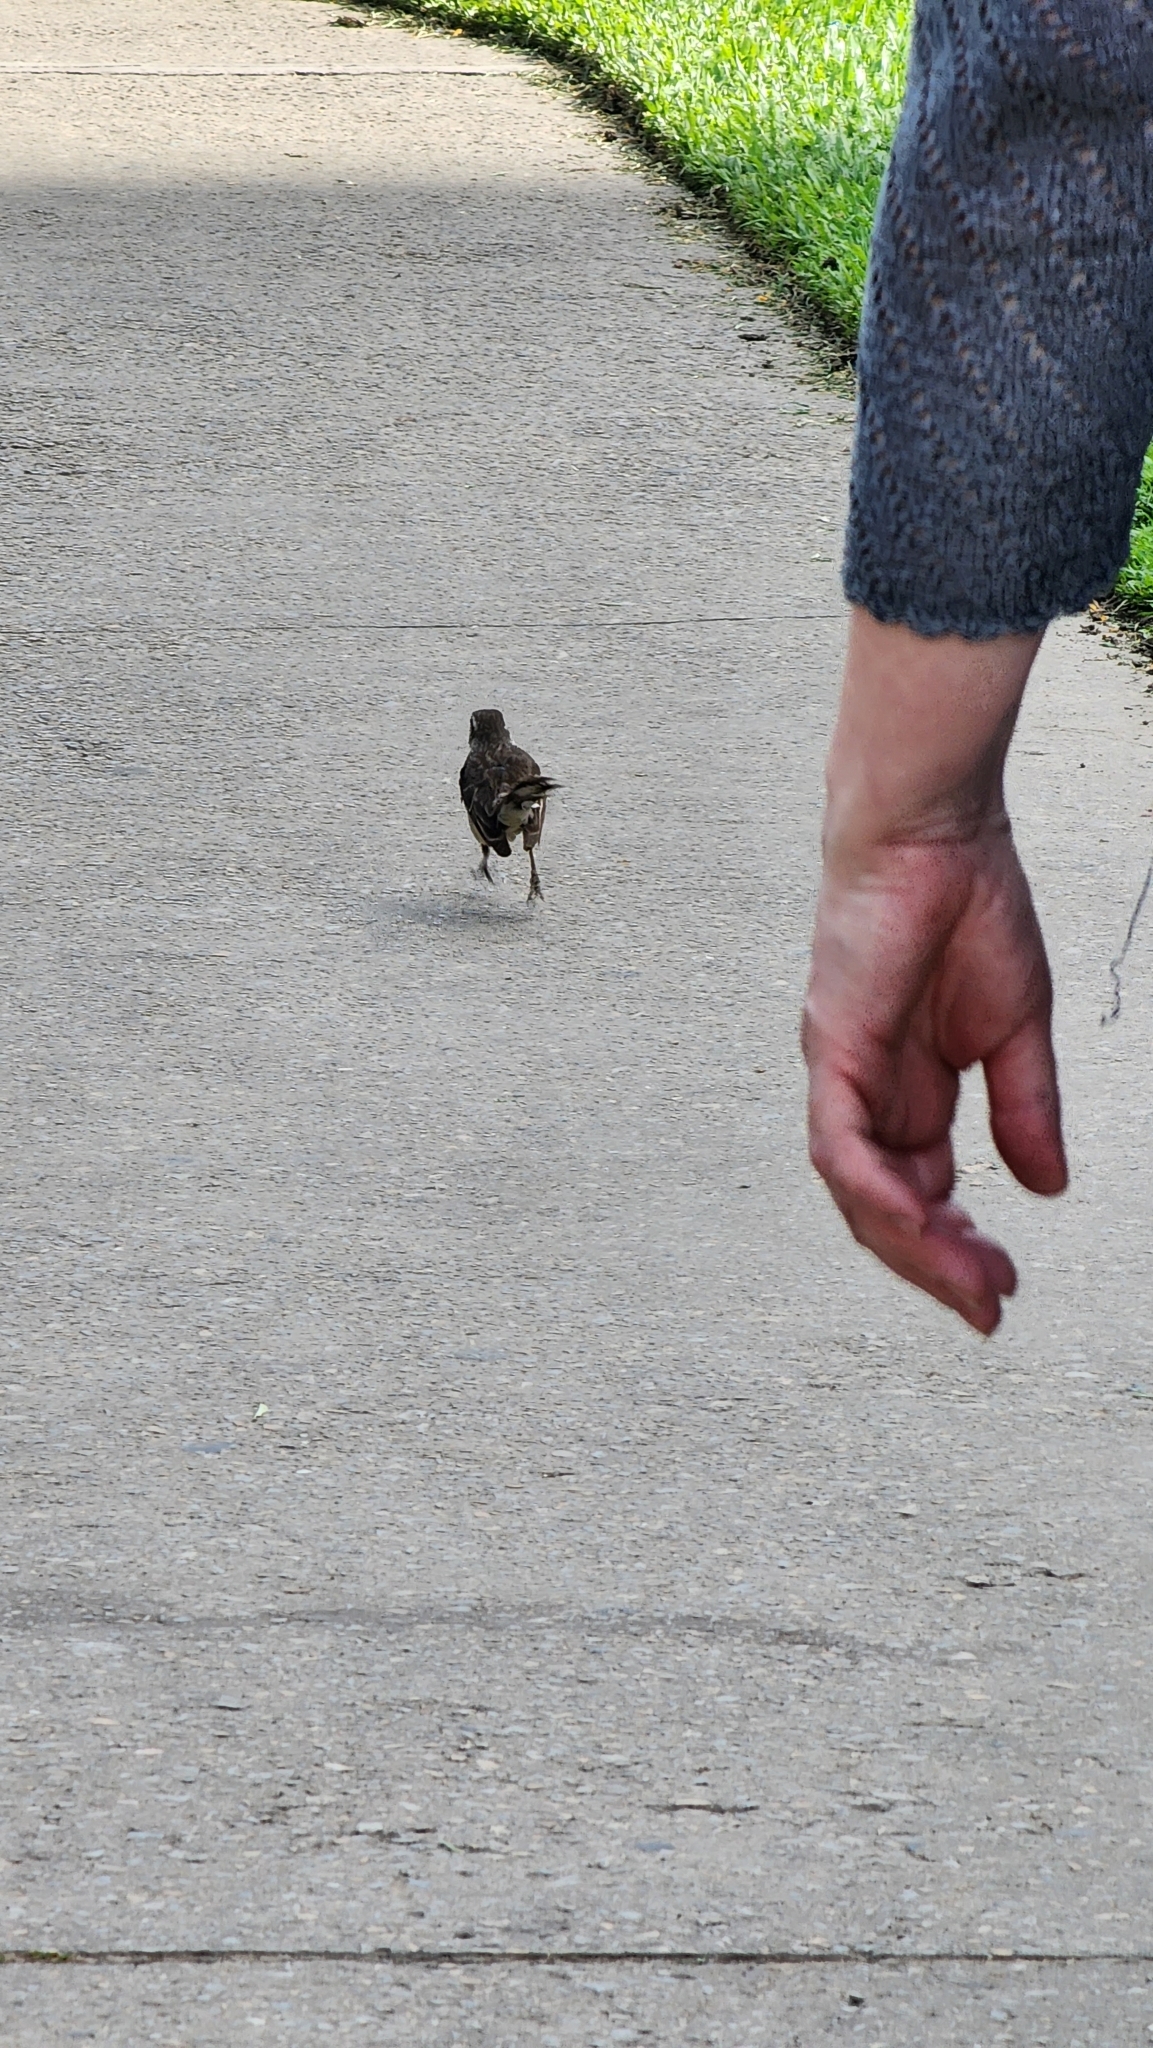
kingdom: Animalia
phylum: Chordata
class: Aves
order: Passeriformes
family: Mimidae
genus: Mimus
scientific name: Mimus saturninus
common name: Chalk-browed mockingbird
